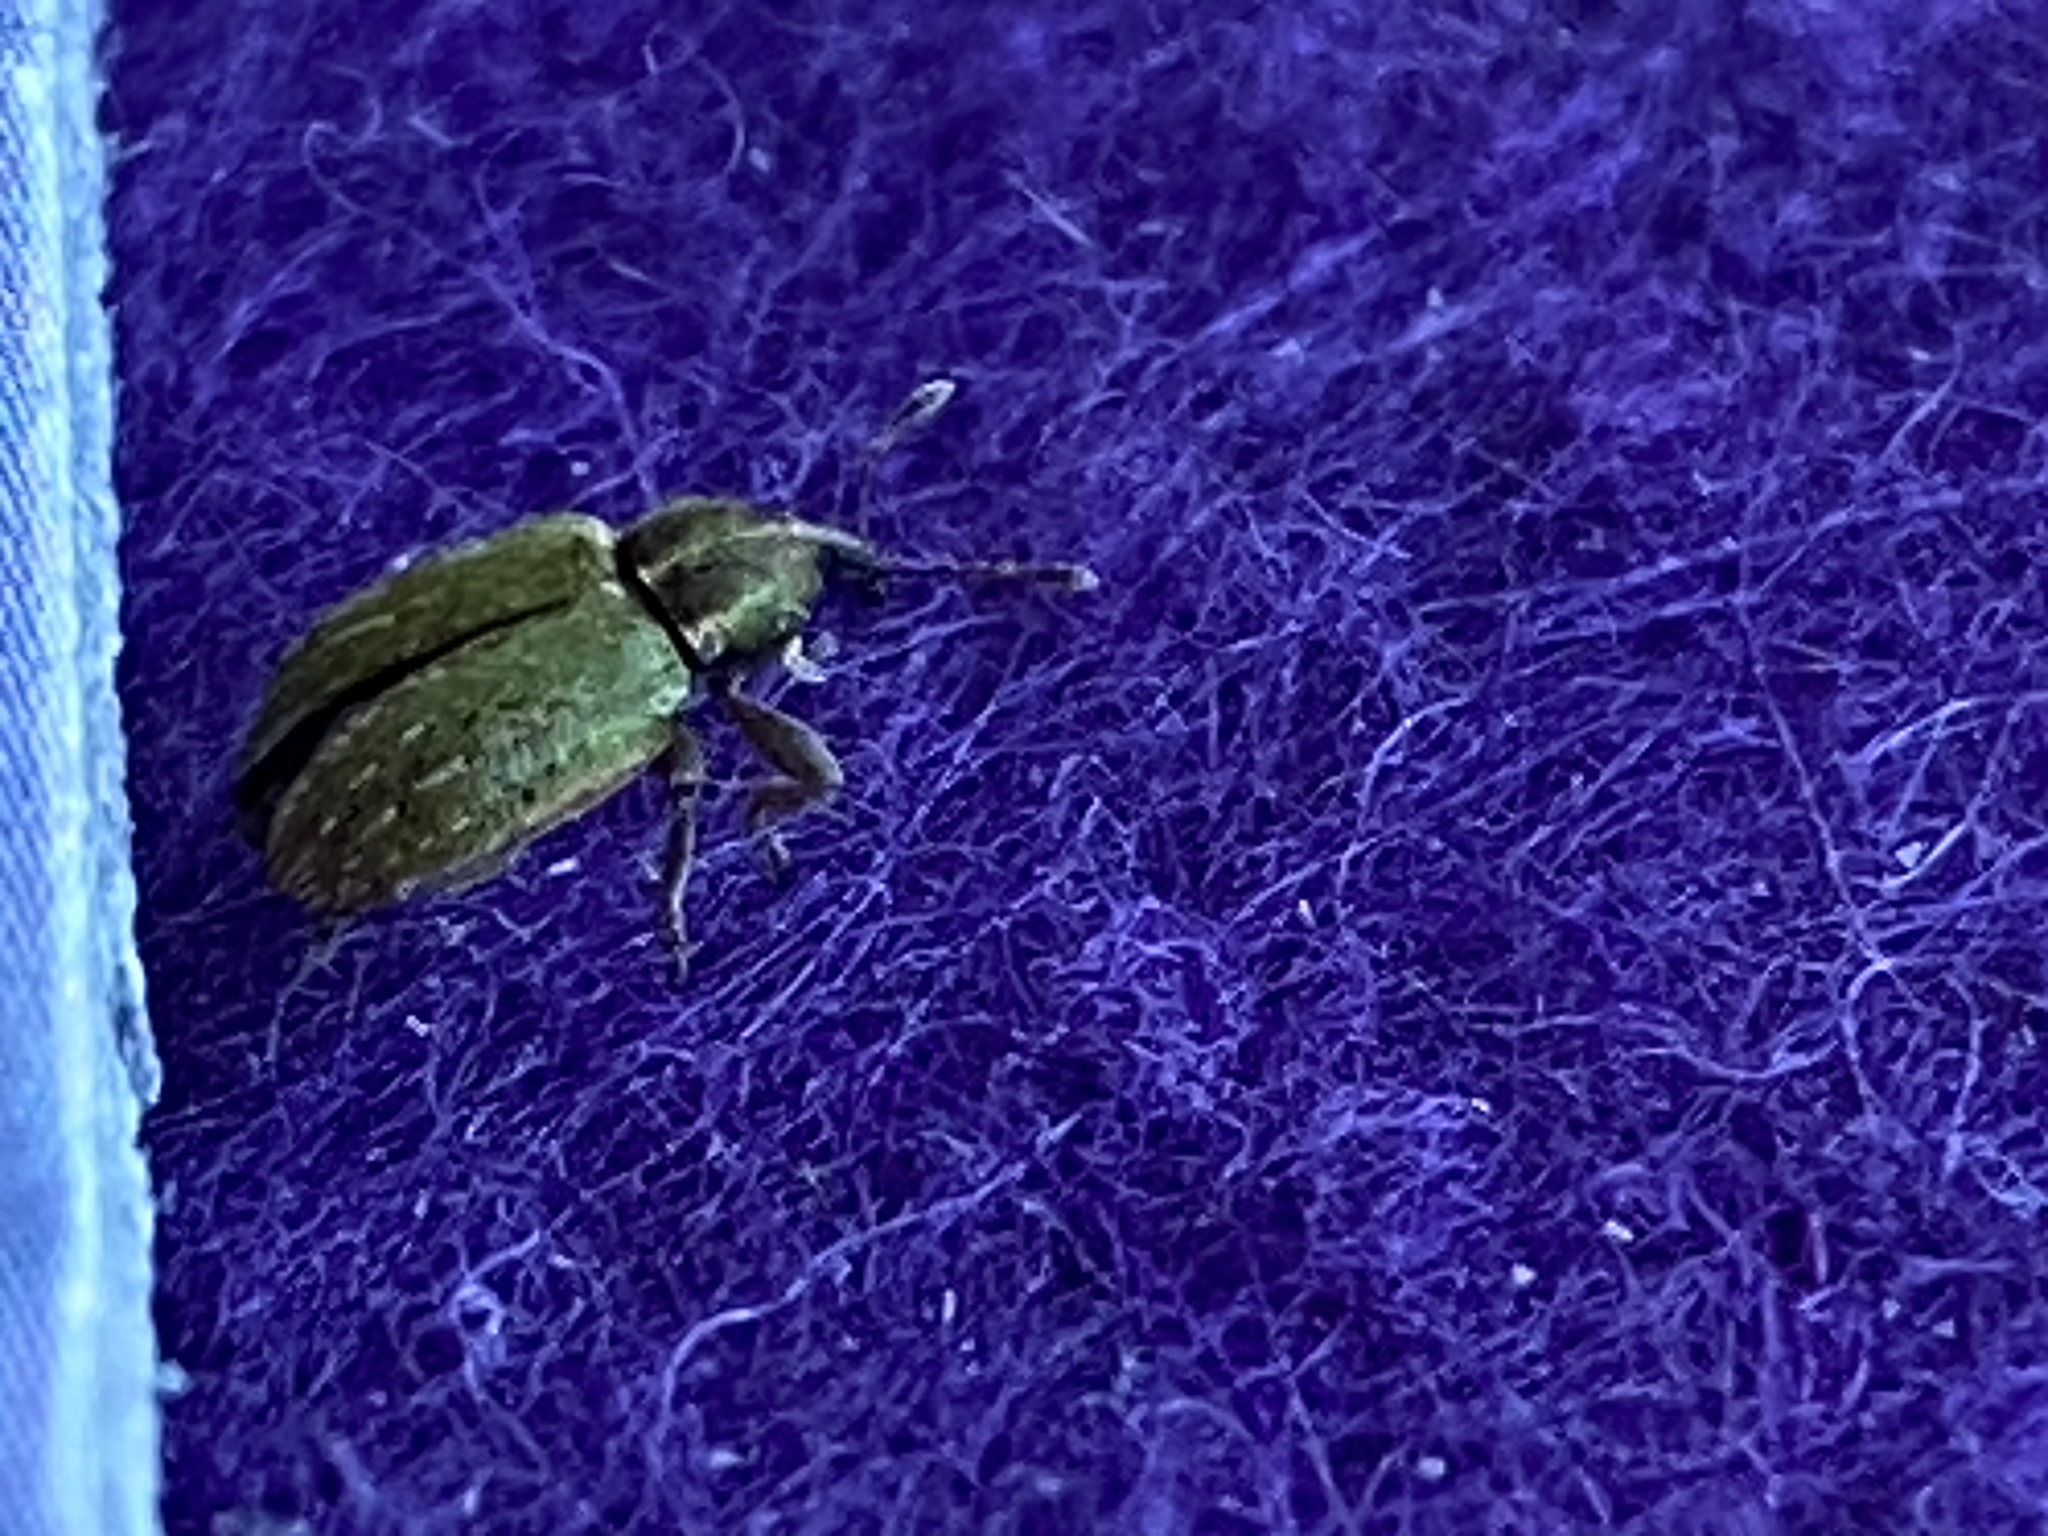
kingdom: Animalia
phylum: Arthropoda
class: Insecta
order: Coleoptera
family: Curculionidae
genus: Hypera
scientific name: Hypera nigrirostris
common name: Black-beaked green weevil
